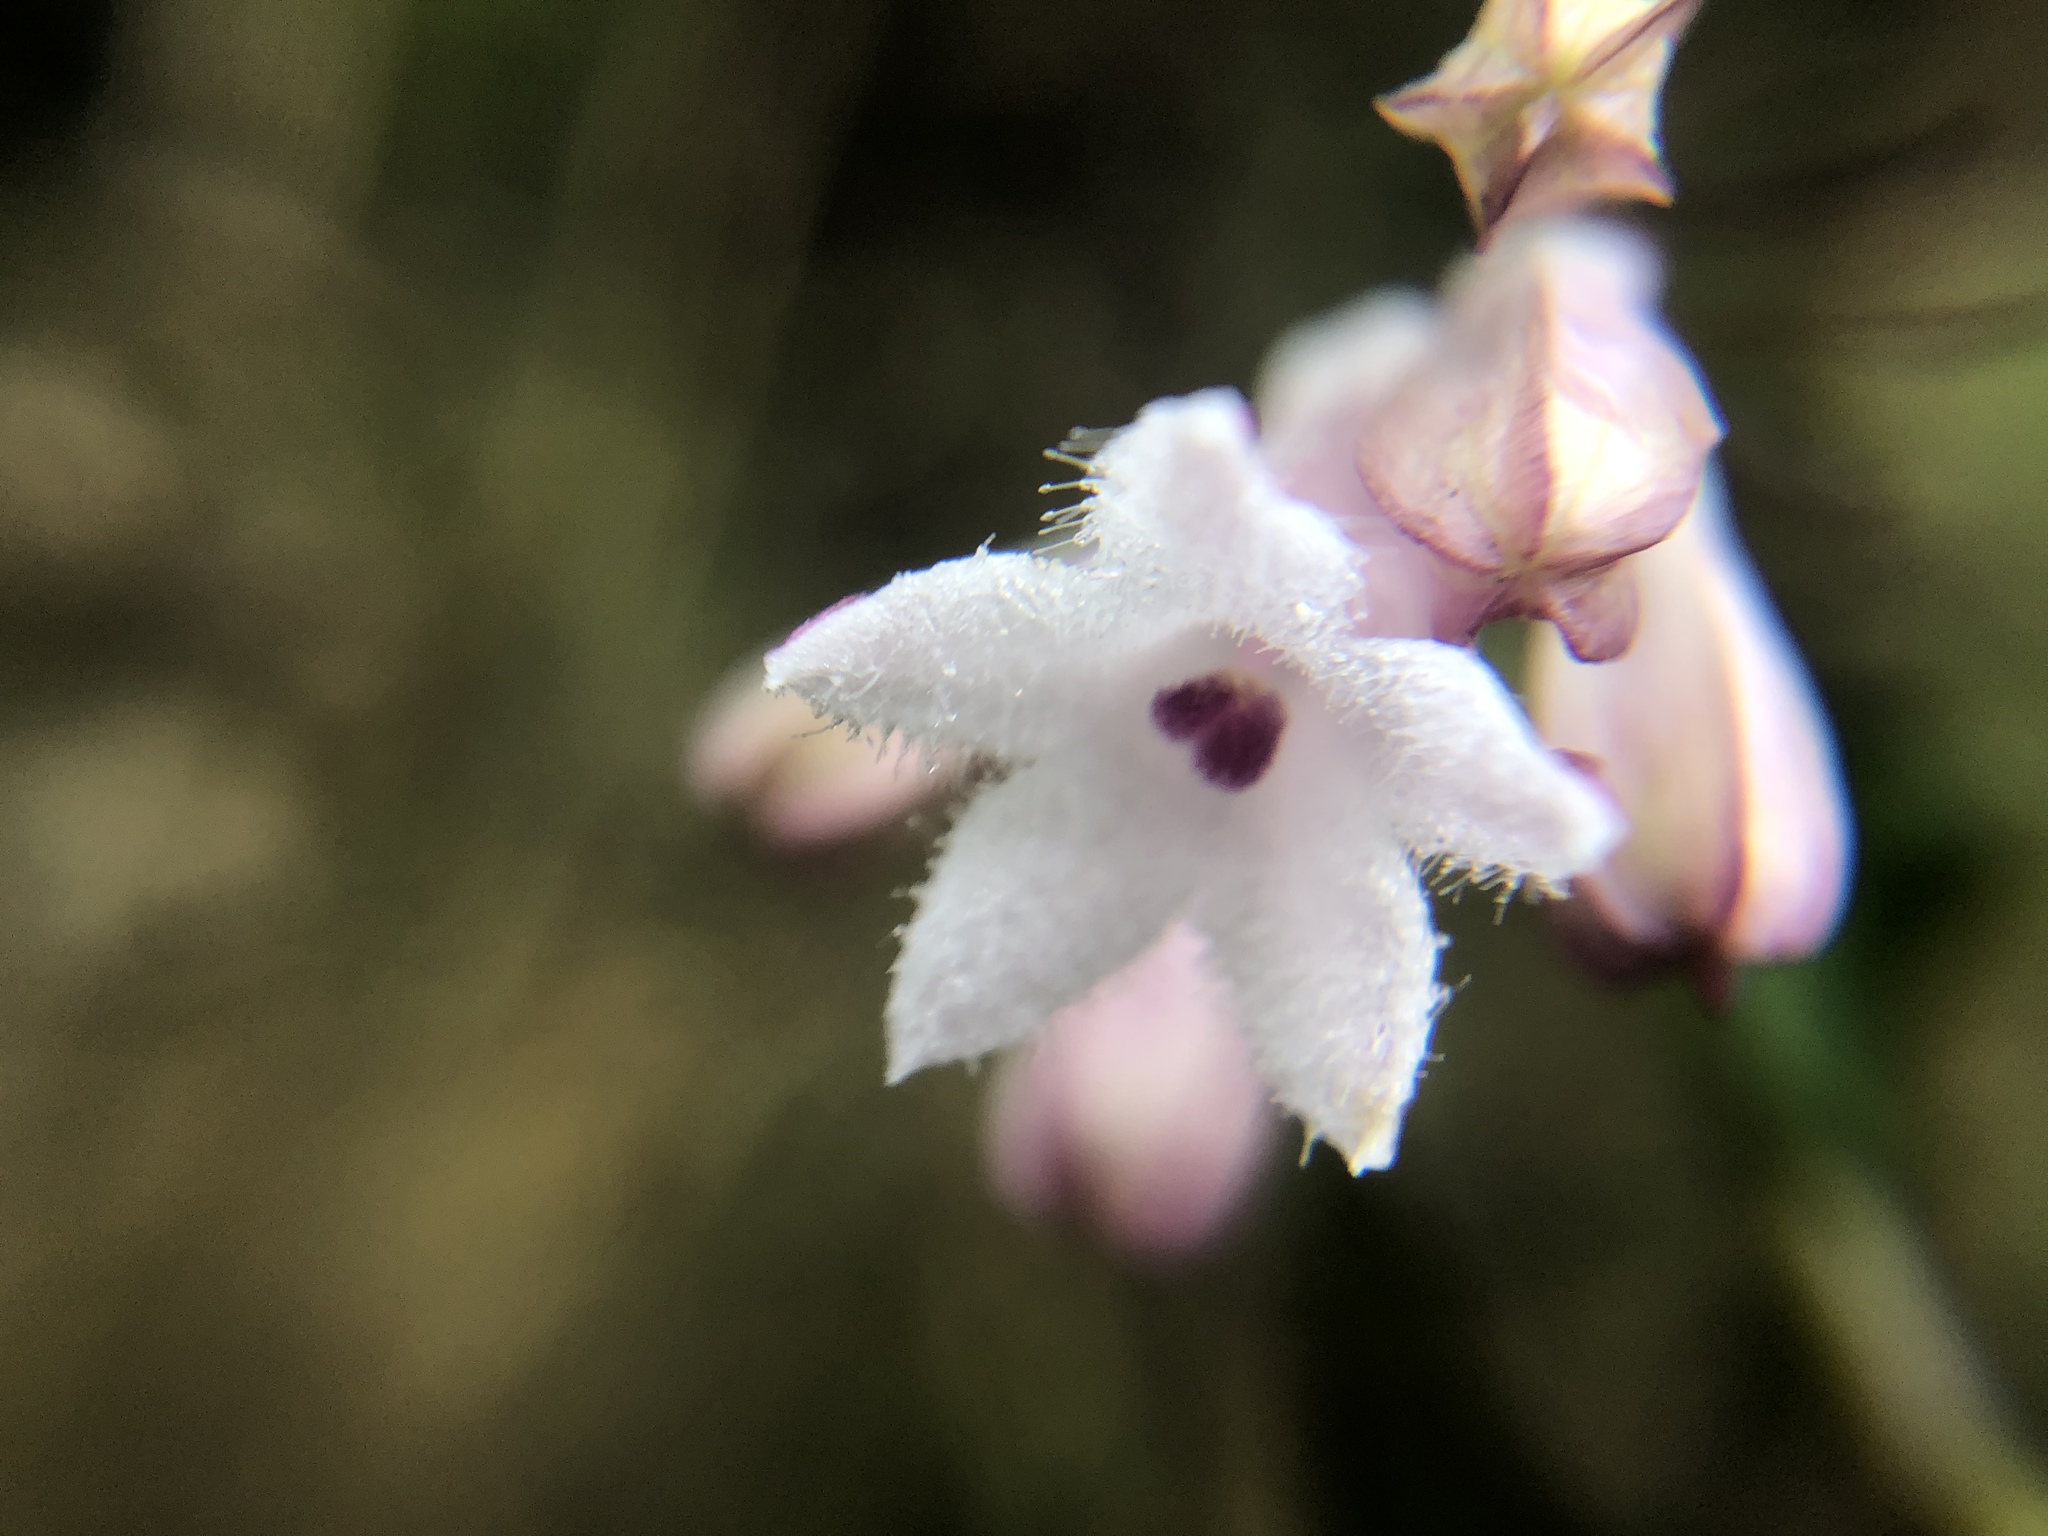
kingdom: Plantae
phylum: Tracheophyta
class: Magnoliopsida
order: Gentianales
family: Rubiaceae
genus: Ophiorrhiza
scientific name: Ophiorrhiza japonica
